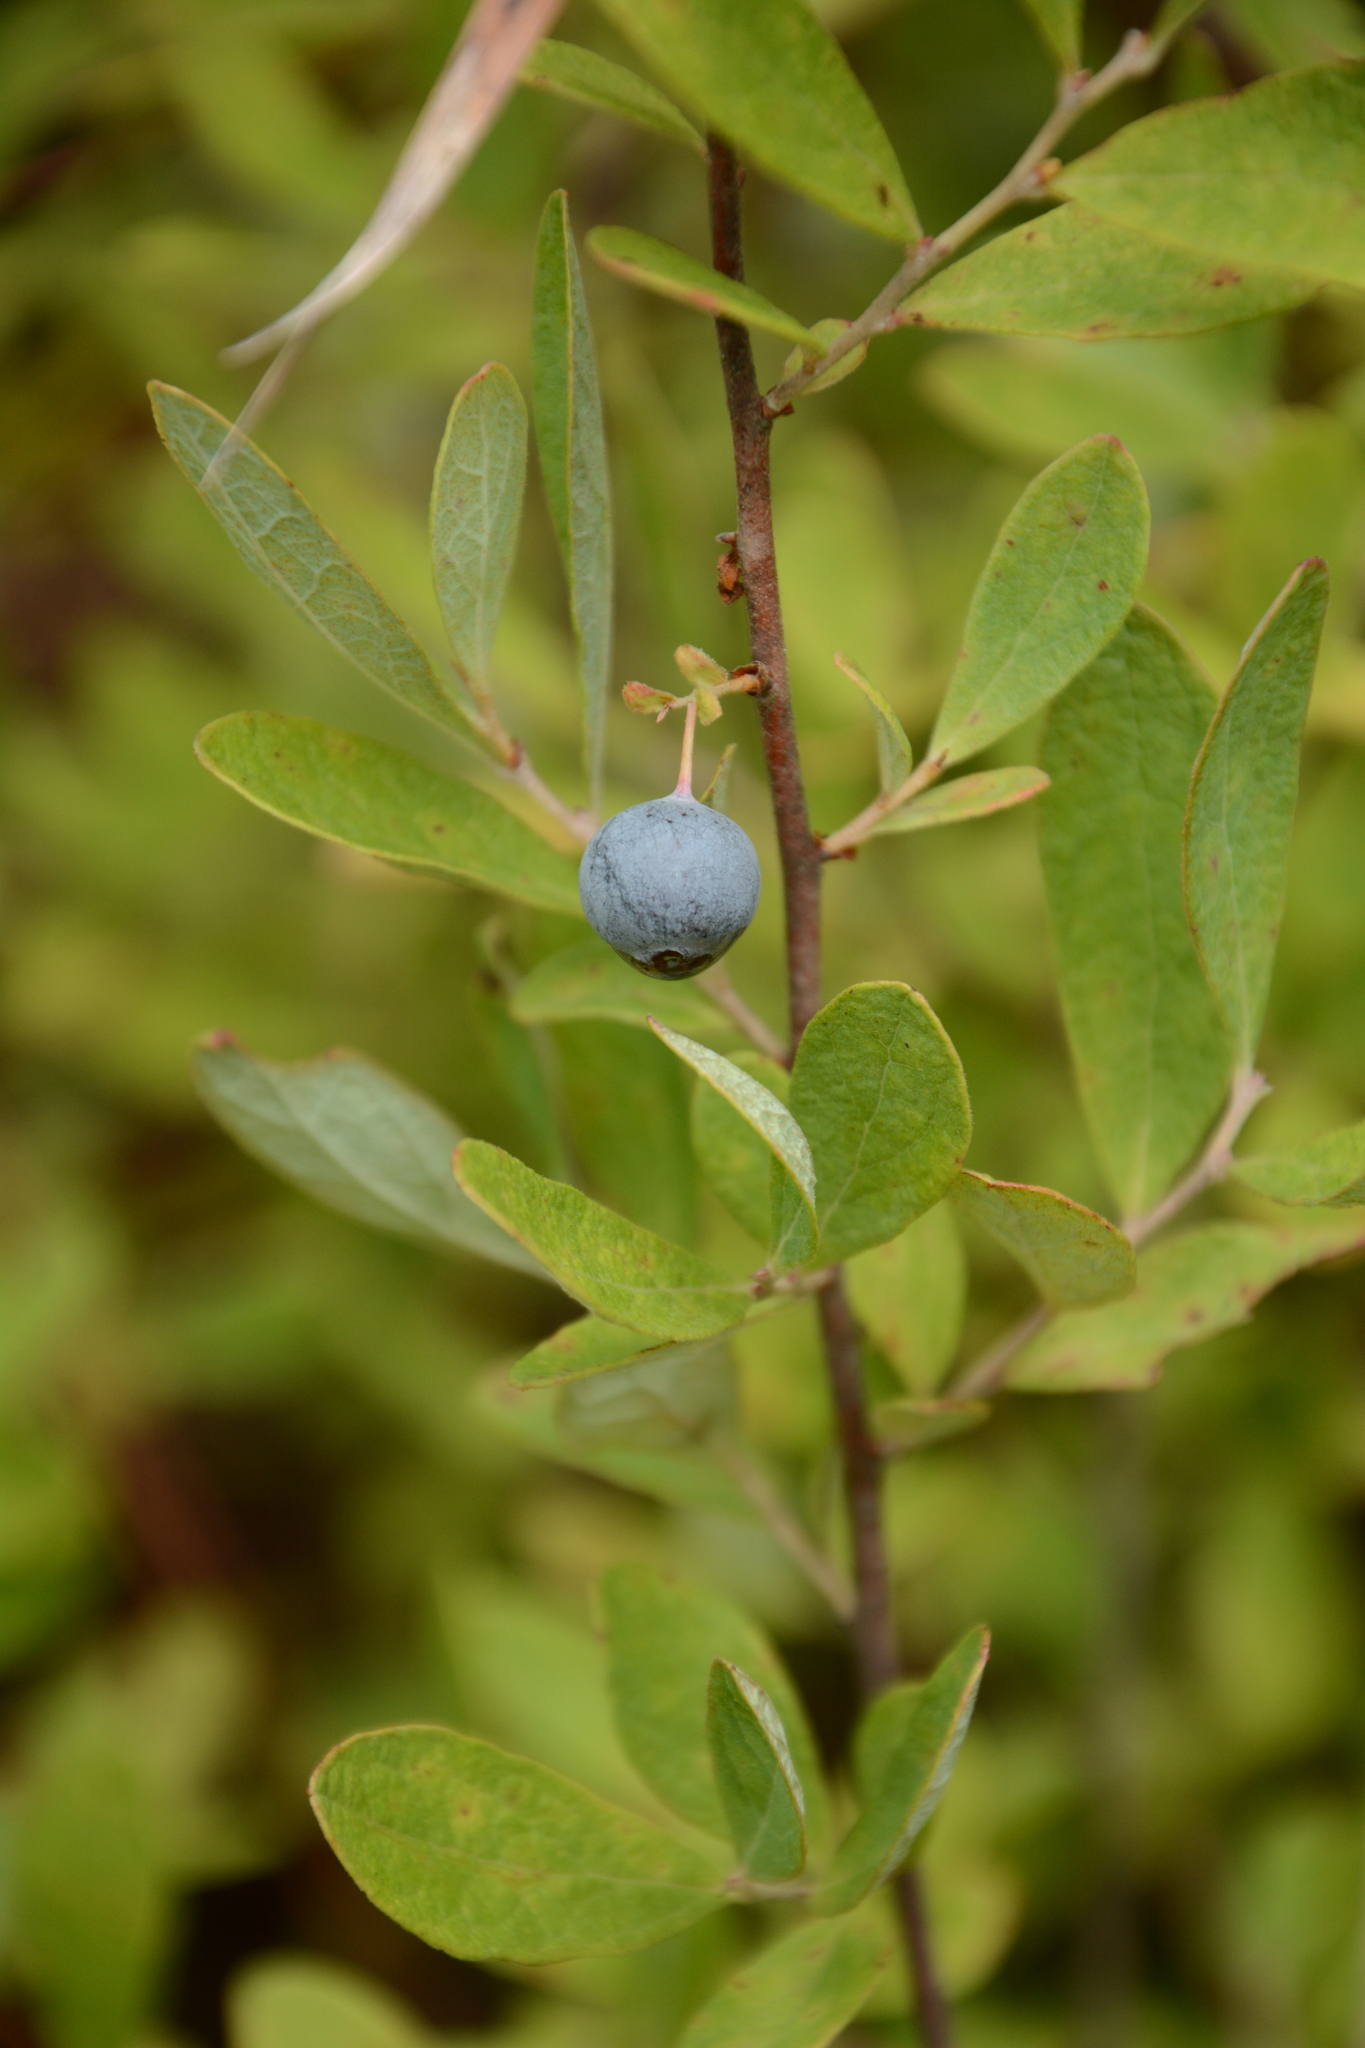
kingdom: Plantae
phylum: Tracheophyta
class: Magnoliopsida
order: Ericales
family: Ericaceae
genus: Gaylussacia
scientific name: Gaylussacia nana
